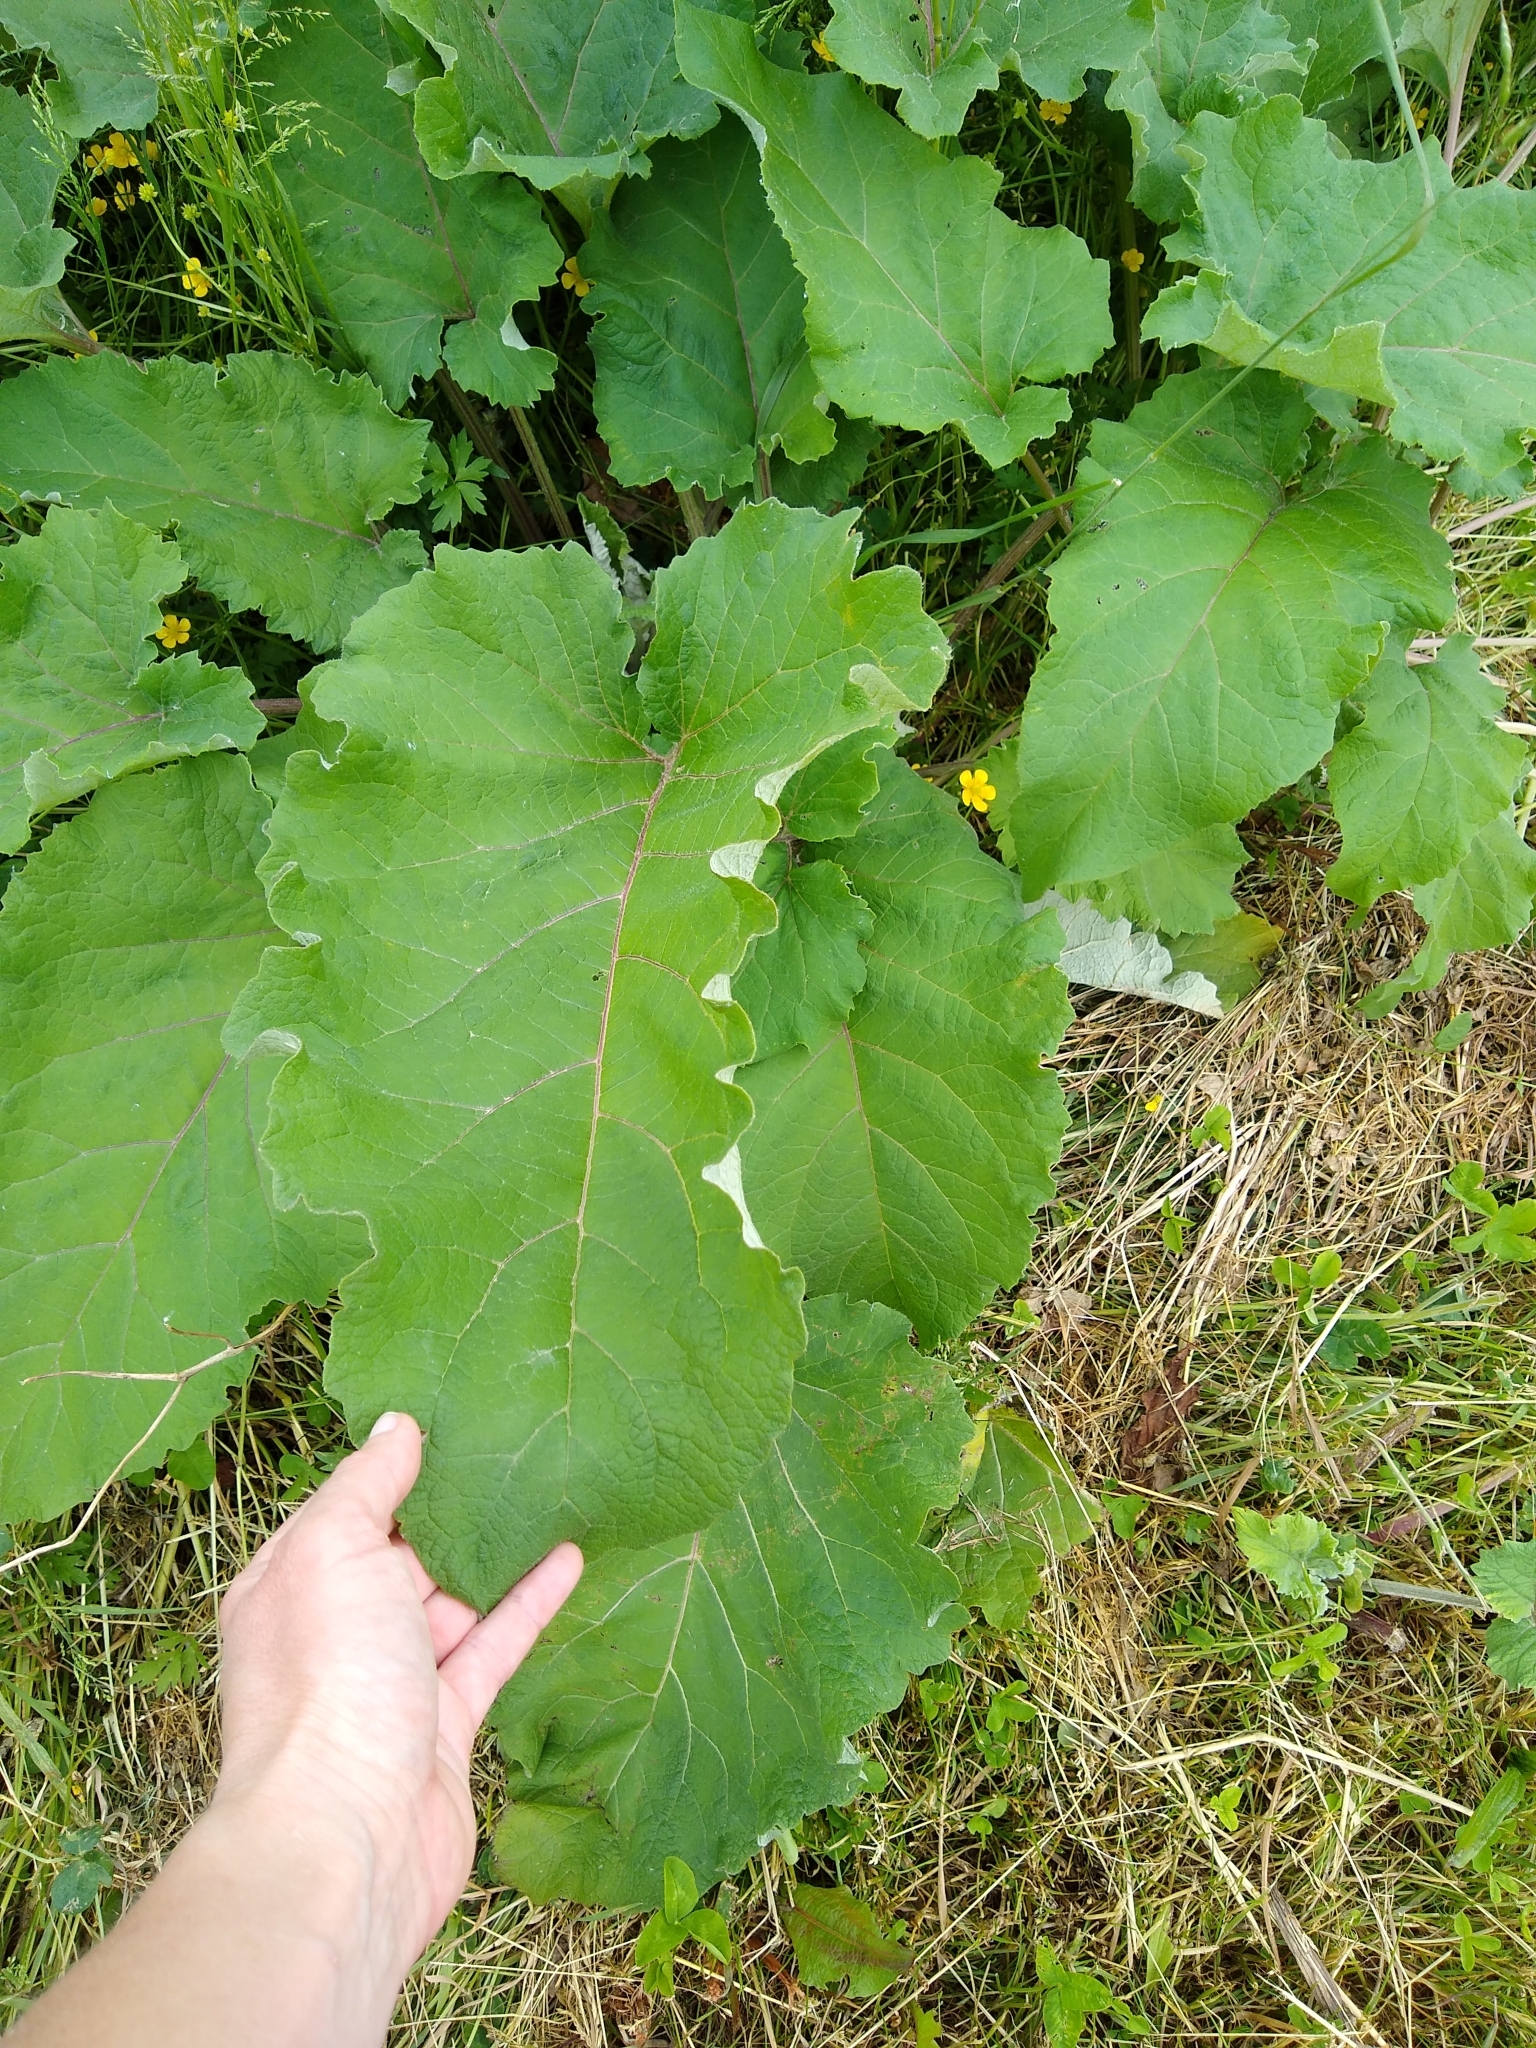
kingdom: Plantae
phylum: Tracheophyta
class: Magnoliopsida
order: Asterales
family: Asteraceae
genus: Arctium
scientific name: Arctium
